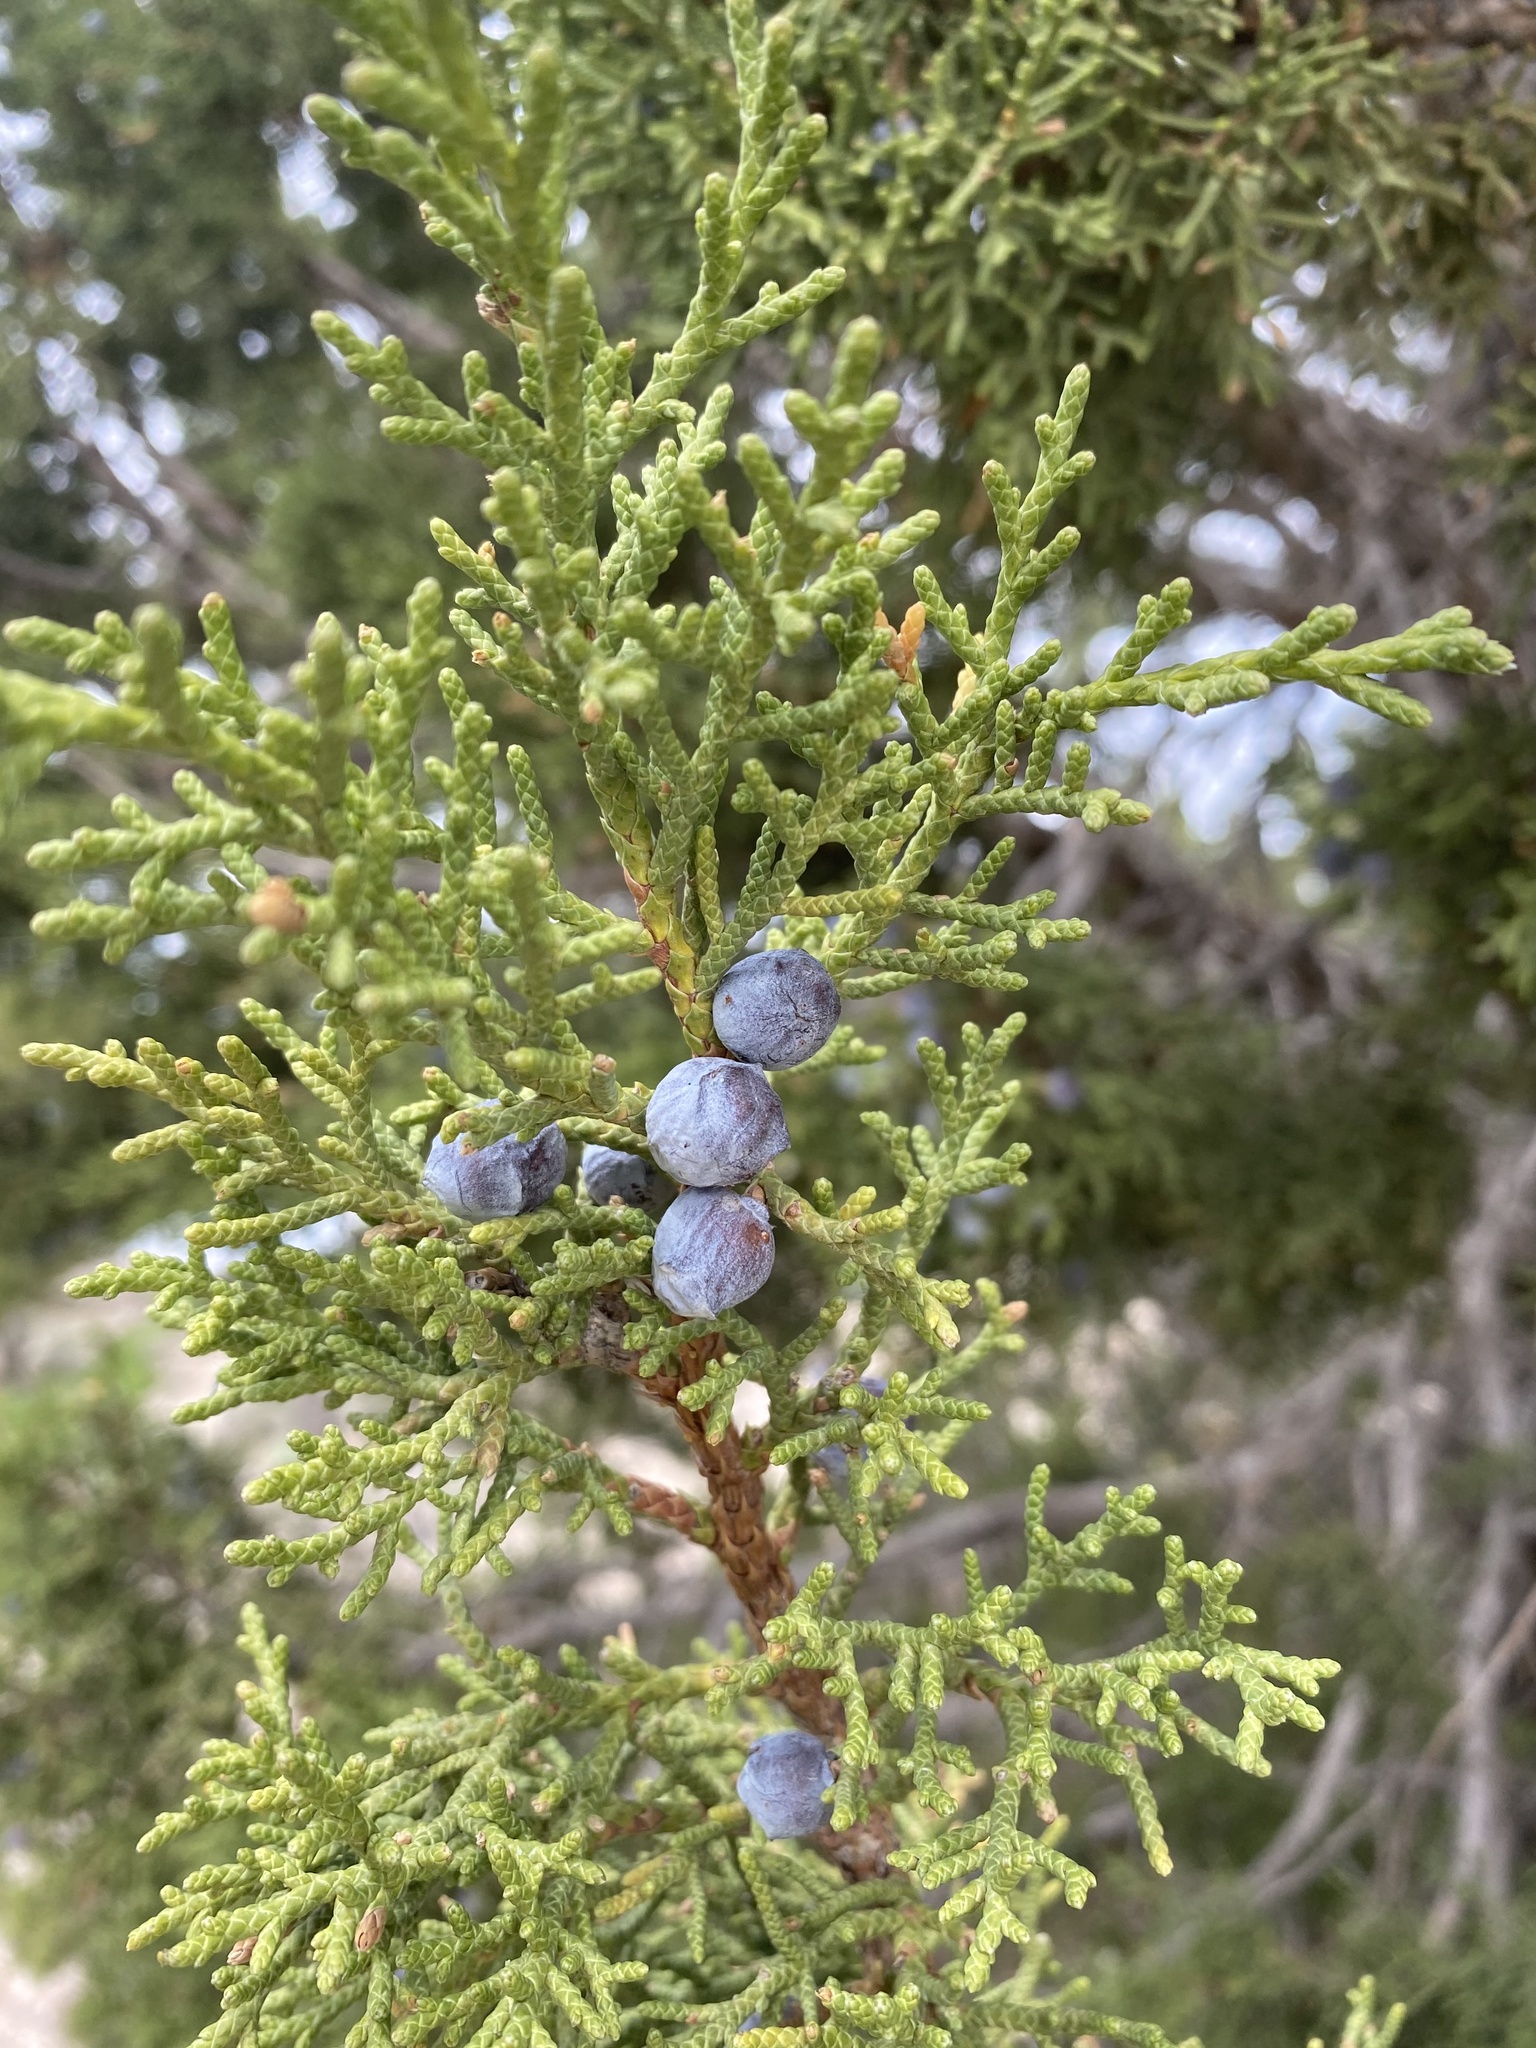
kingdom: Plantae
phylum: Tracheophyta
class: Pinopsida
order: Pinales
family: Cupressaceae
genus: Juniperus
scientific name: Juniperus osteosperma
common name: Utah juniper
